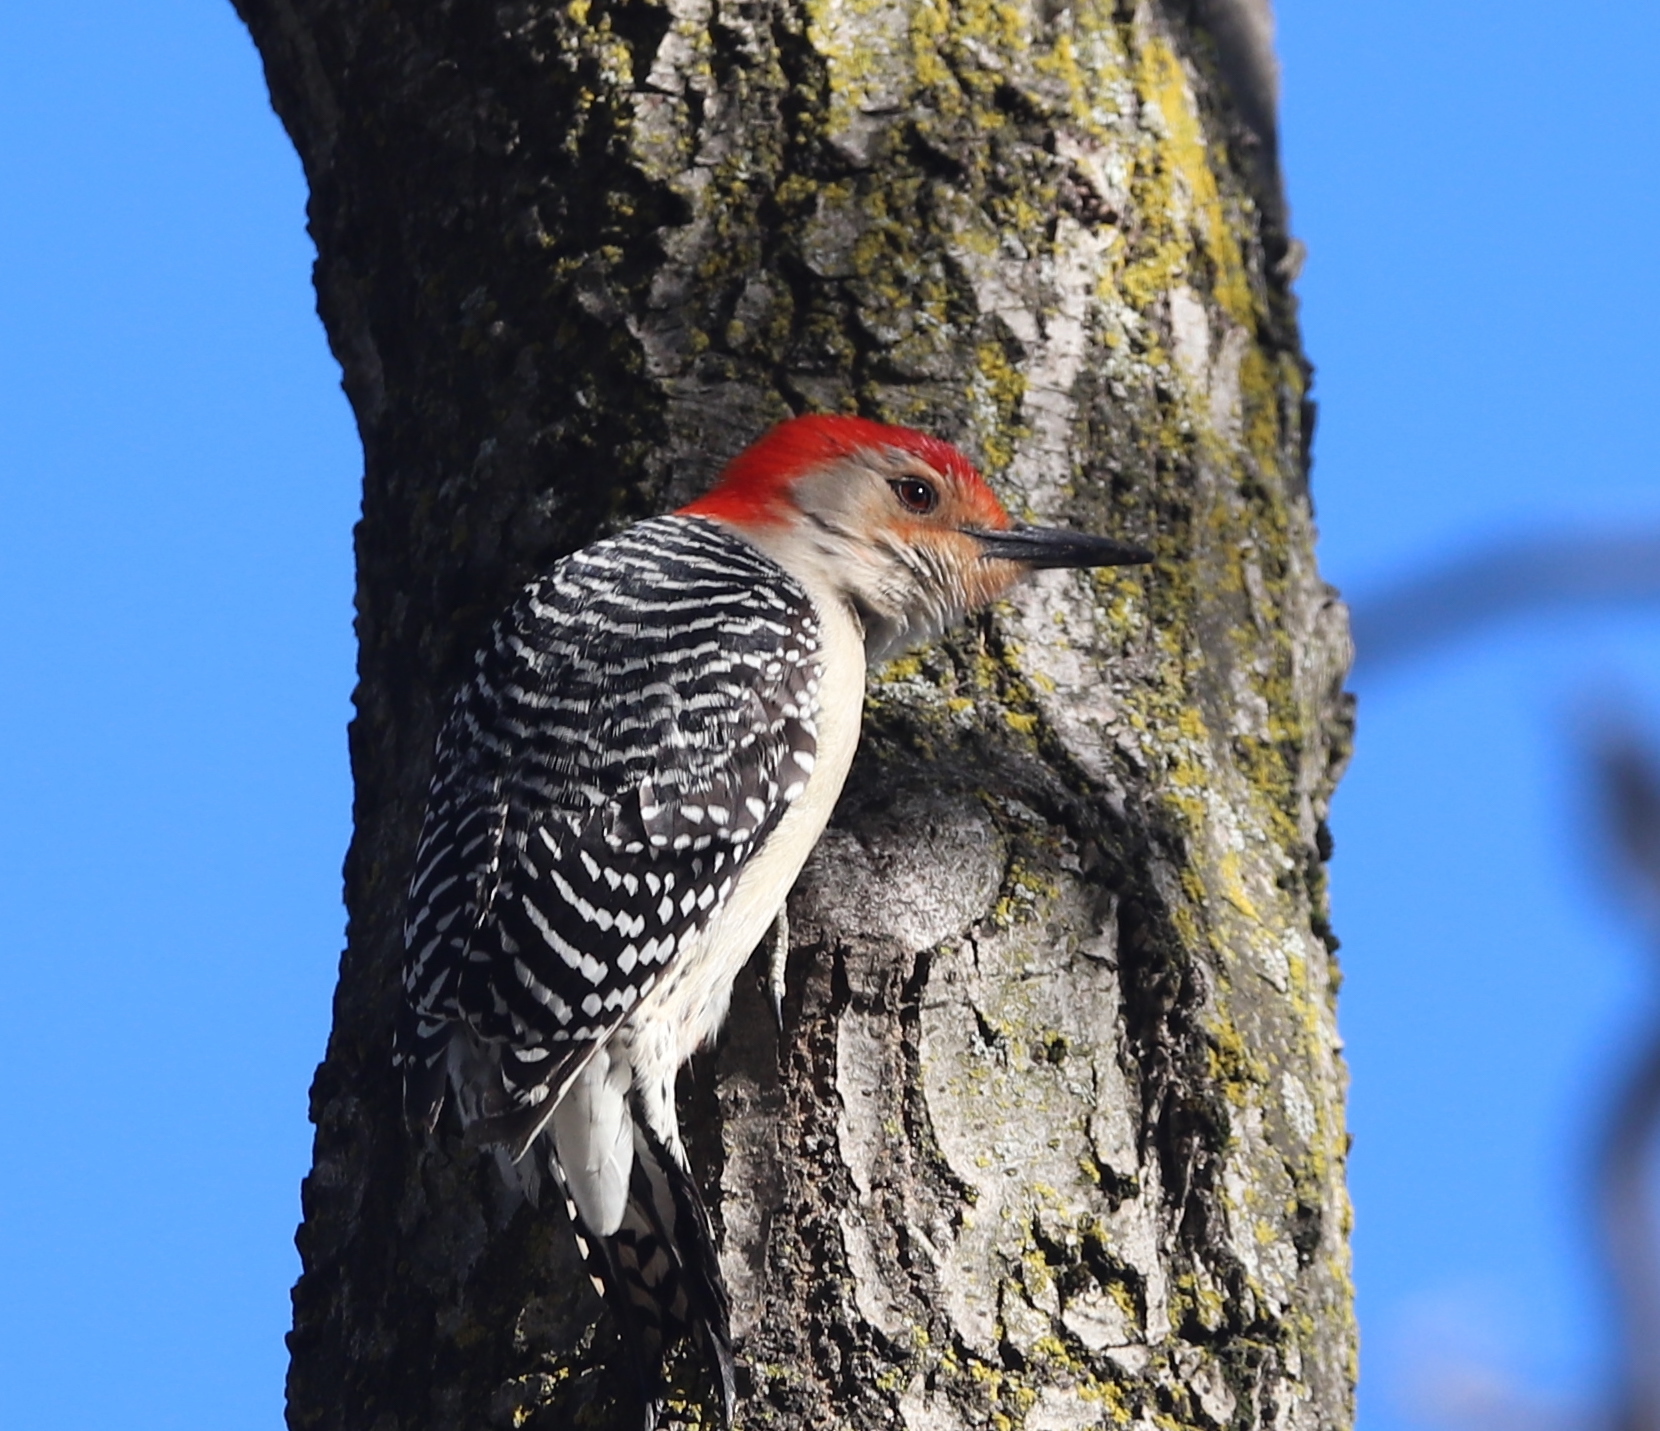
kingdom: Animalia
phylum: Chordata
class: Aves
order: Piciformes
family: Picidae
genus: Melanerpes
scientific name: Melanerpes carolinus
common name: Red-bellied woodpecker
